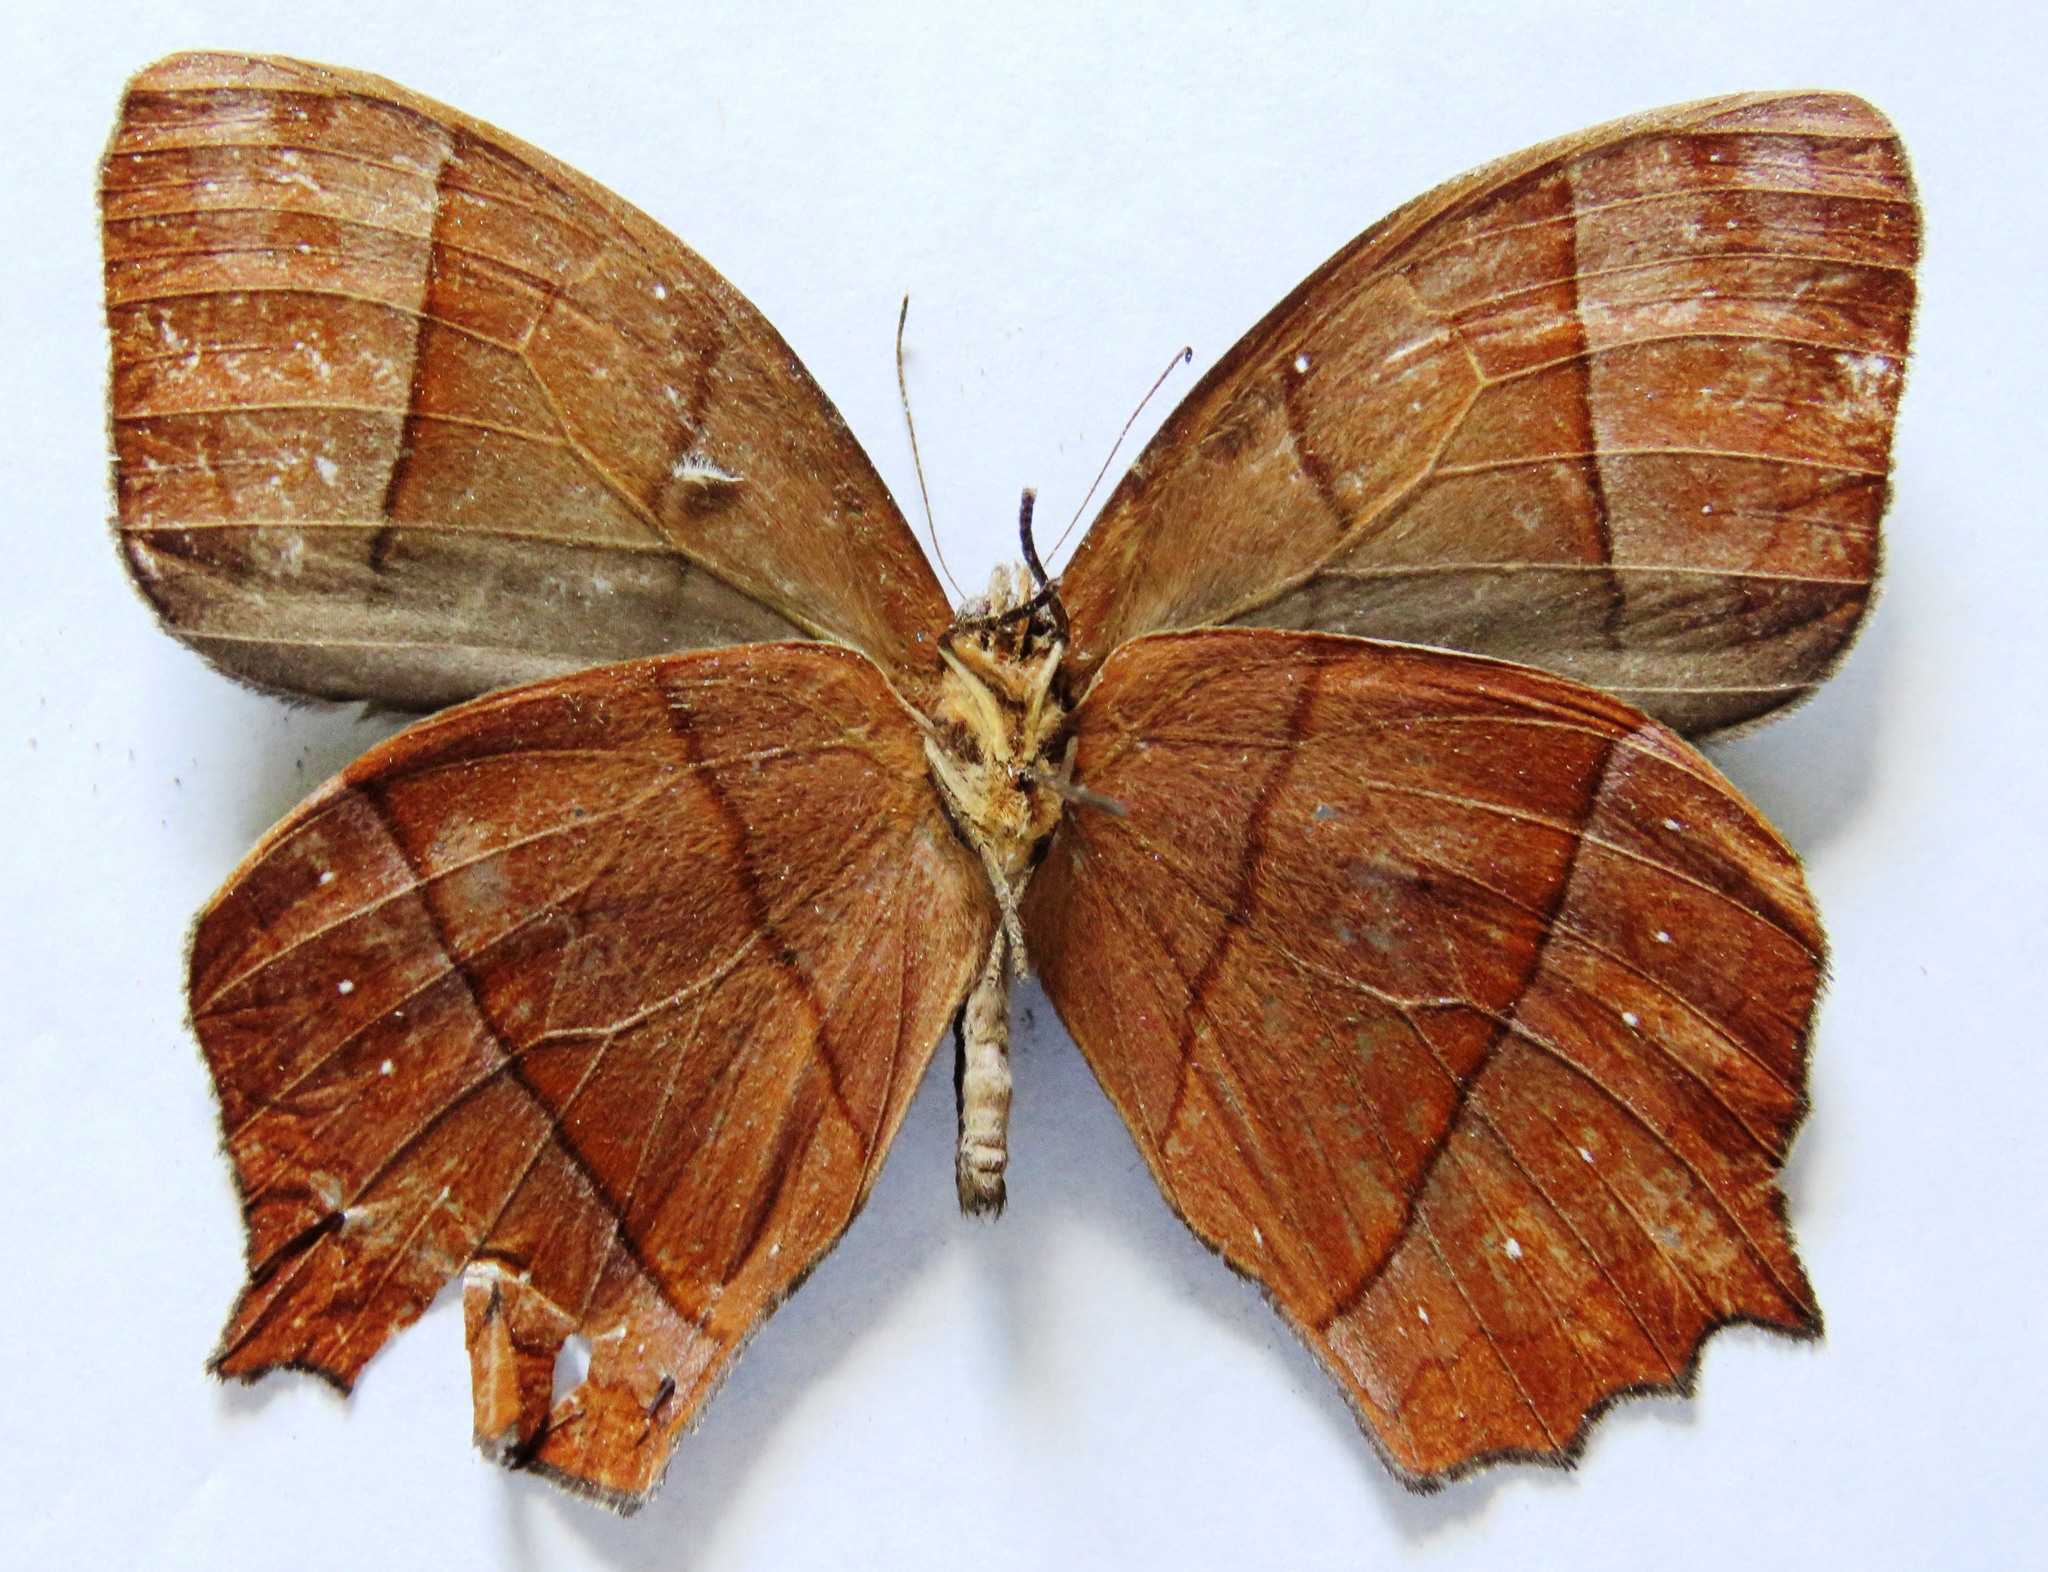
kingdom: Animalia
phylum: Arthropoda
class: Insecta
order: Lepidoptera
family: Nymphalidae
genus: Taygetis
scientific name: Taygetis virgilia
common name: Stub-tailed satyr
